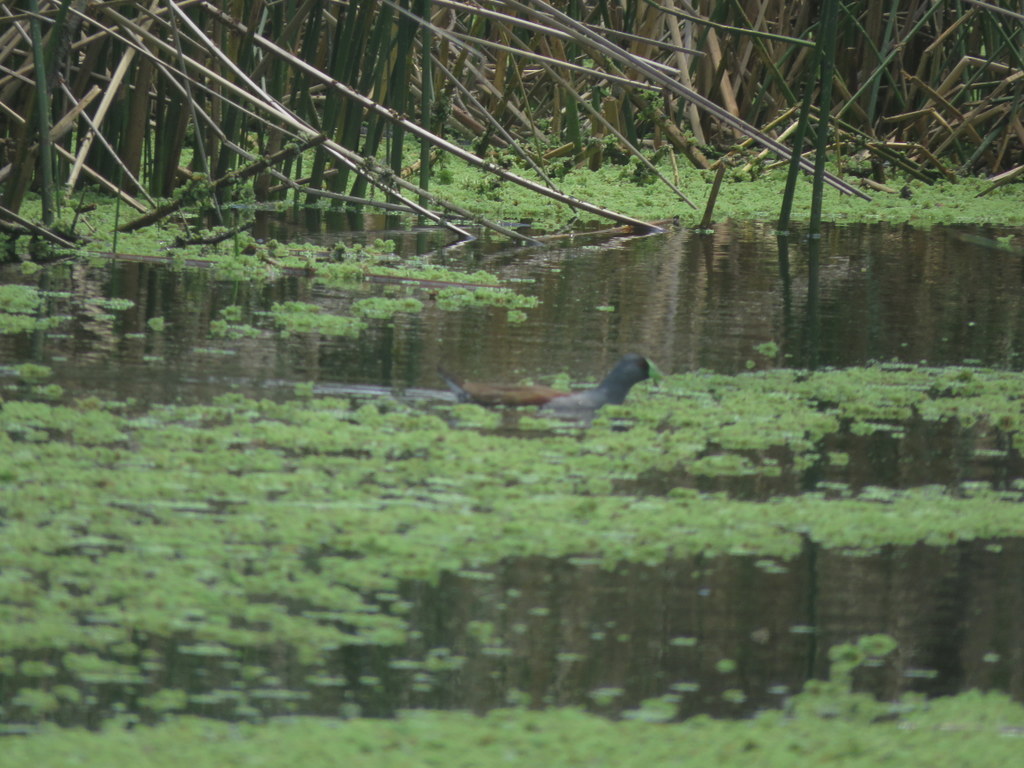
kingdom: Animalia
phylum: Chordata
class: Aves
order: Gruiformes
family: Rallidae
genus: Gallinula
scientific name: Gallinula melanops
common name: Spot-flanked gallinule
